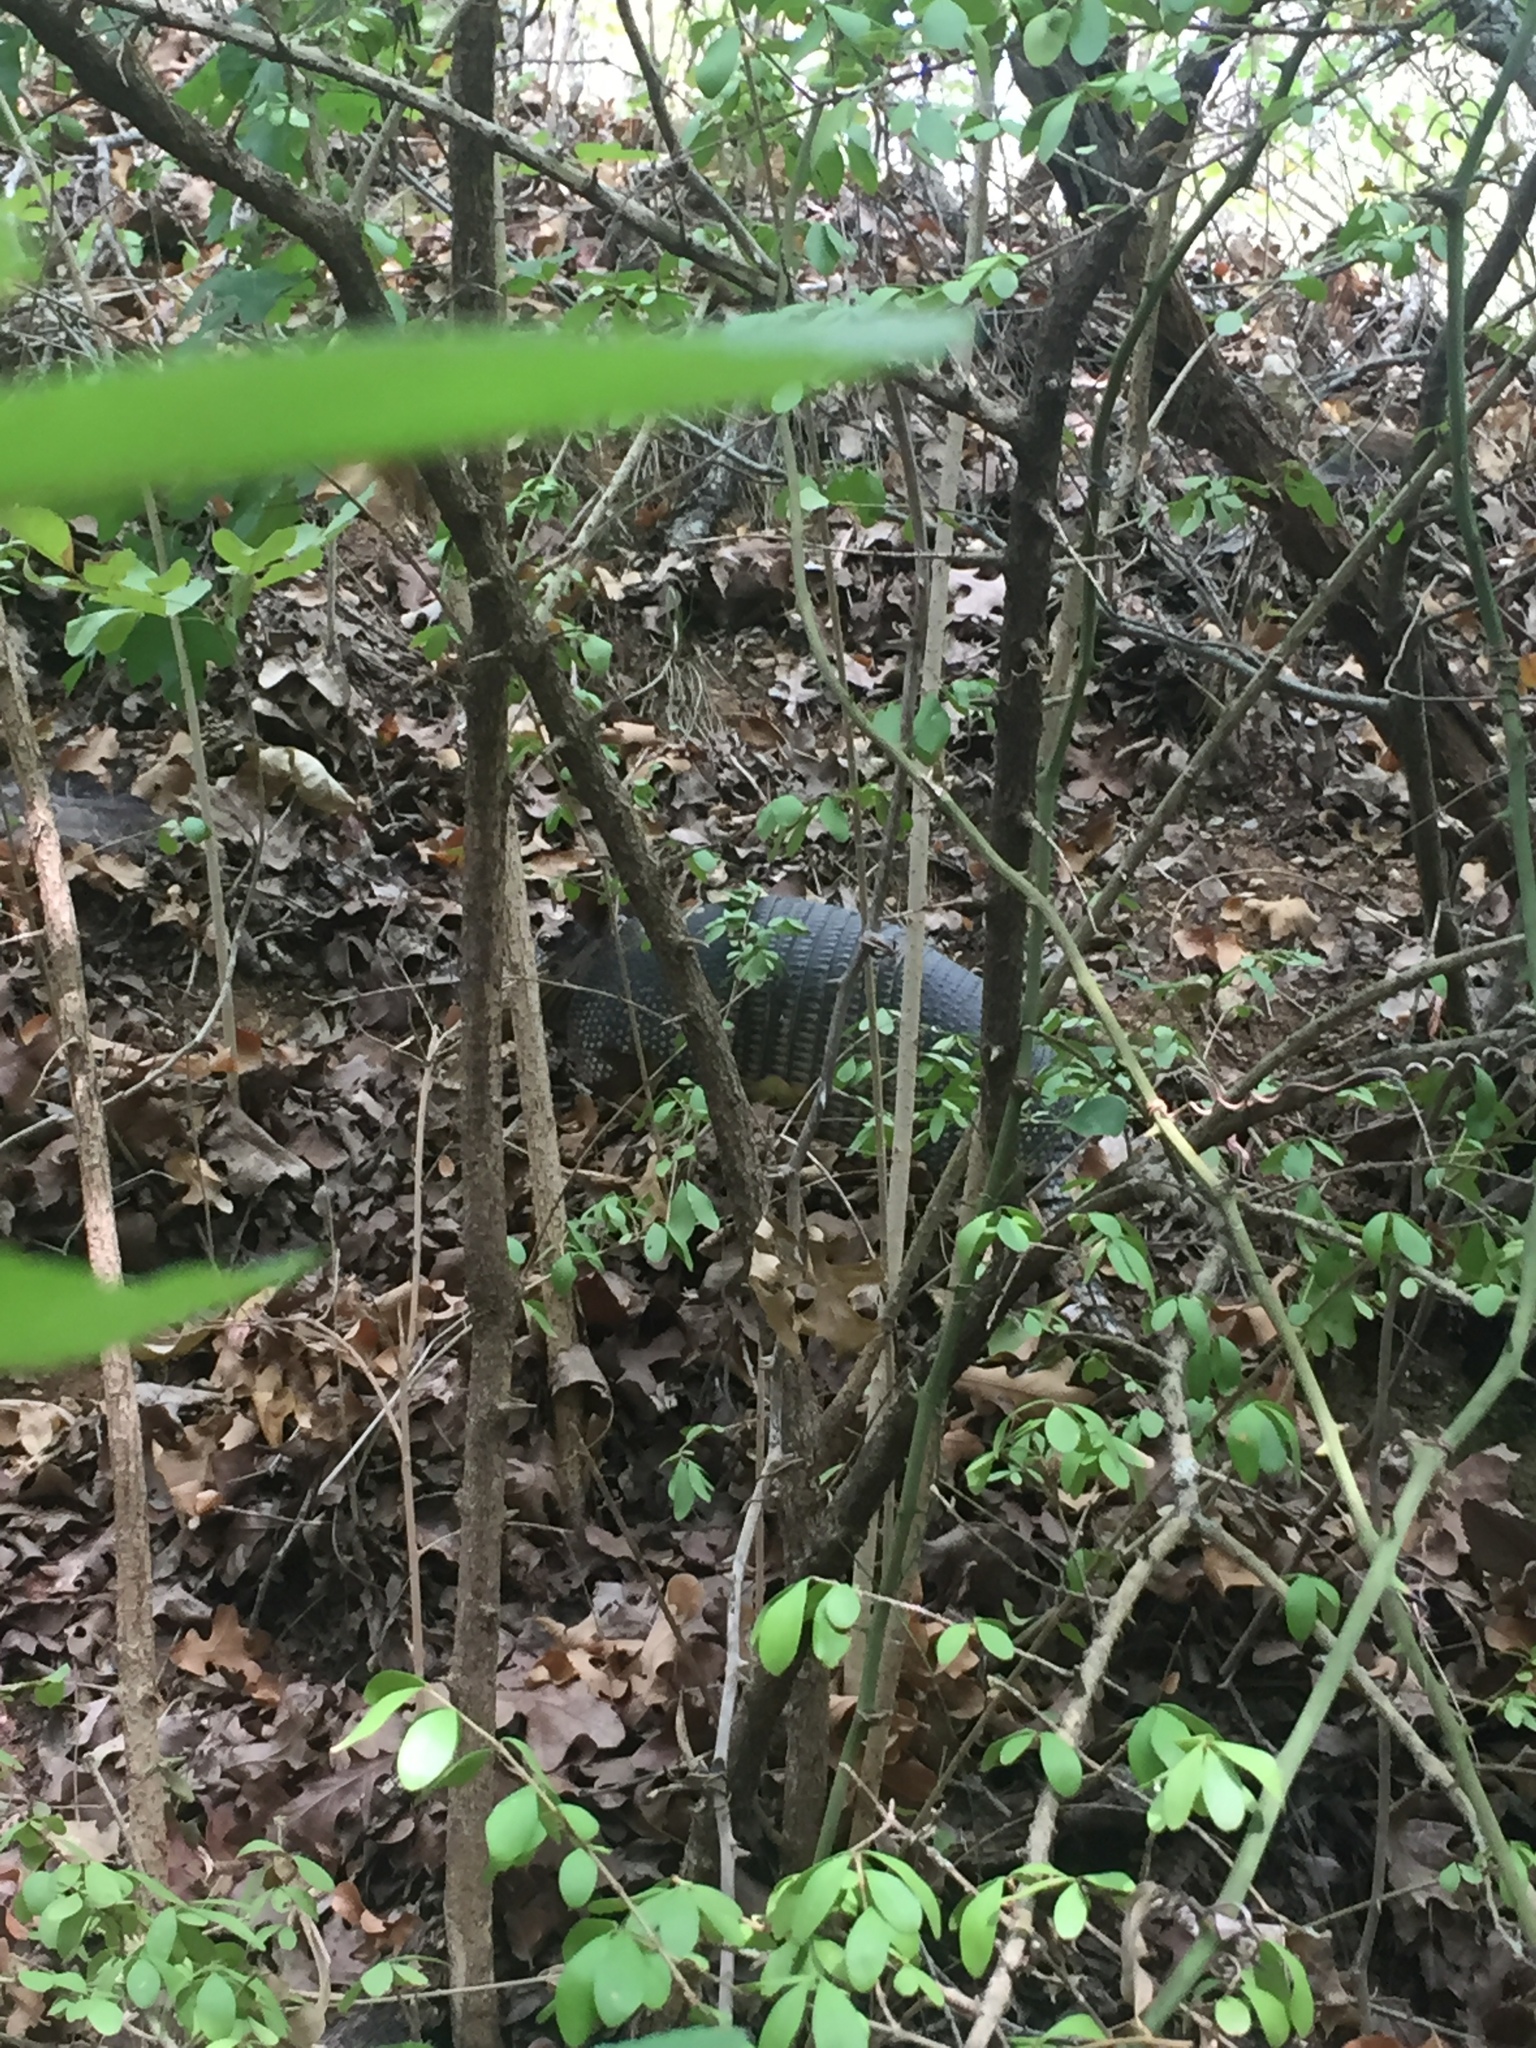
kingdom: Animalia
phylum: Chordata
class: Mammalia
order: Cingulata
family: Dasypodidae
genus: Dasypus
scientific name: Dasypus novemcinctus
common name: Nine-banded armadillo
